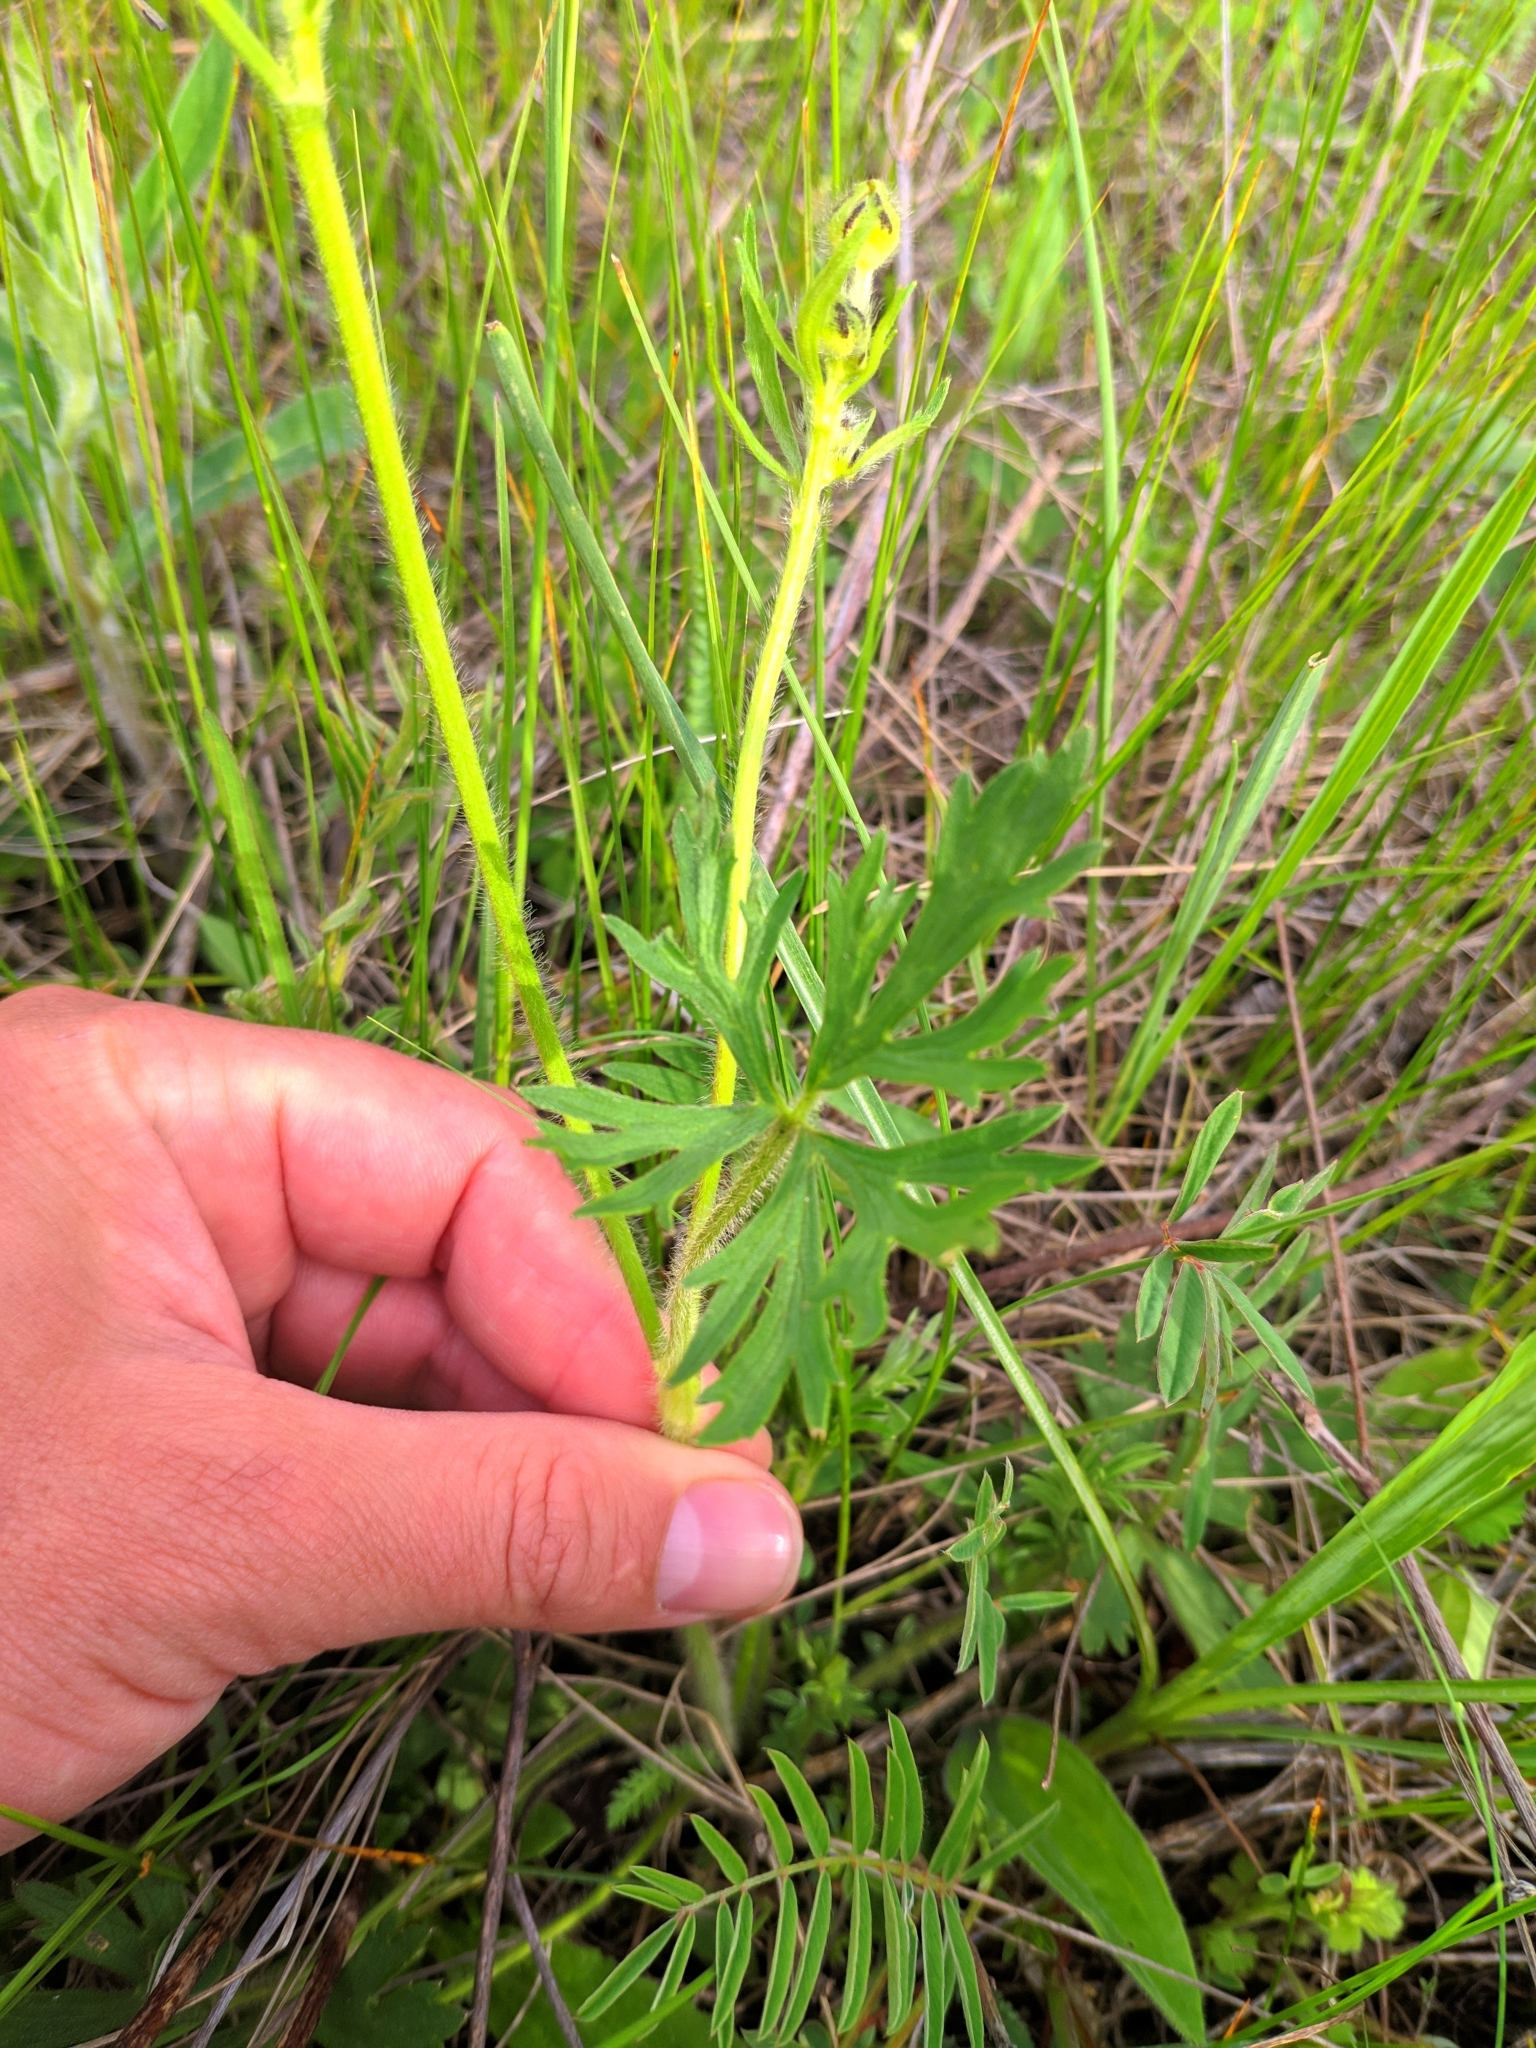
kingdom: Plantae
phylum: Tracheophyta
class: Magnoliopsida
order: Ranunculales
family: Ranunculaceae
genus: Ranunculus
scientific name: Ranunculus polyanthemos
